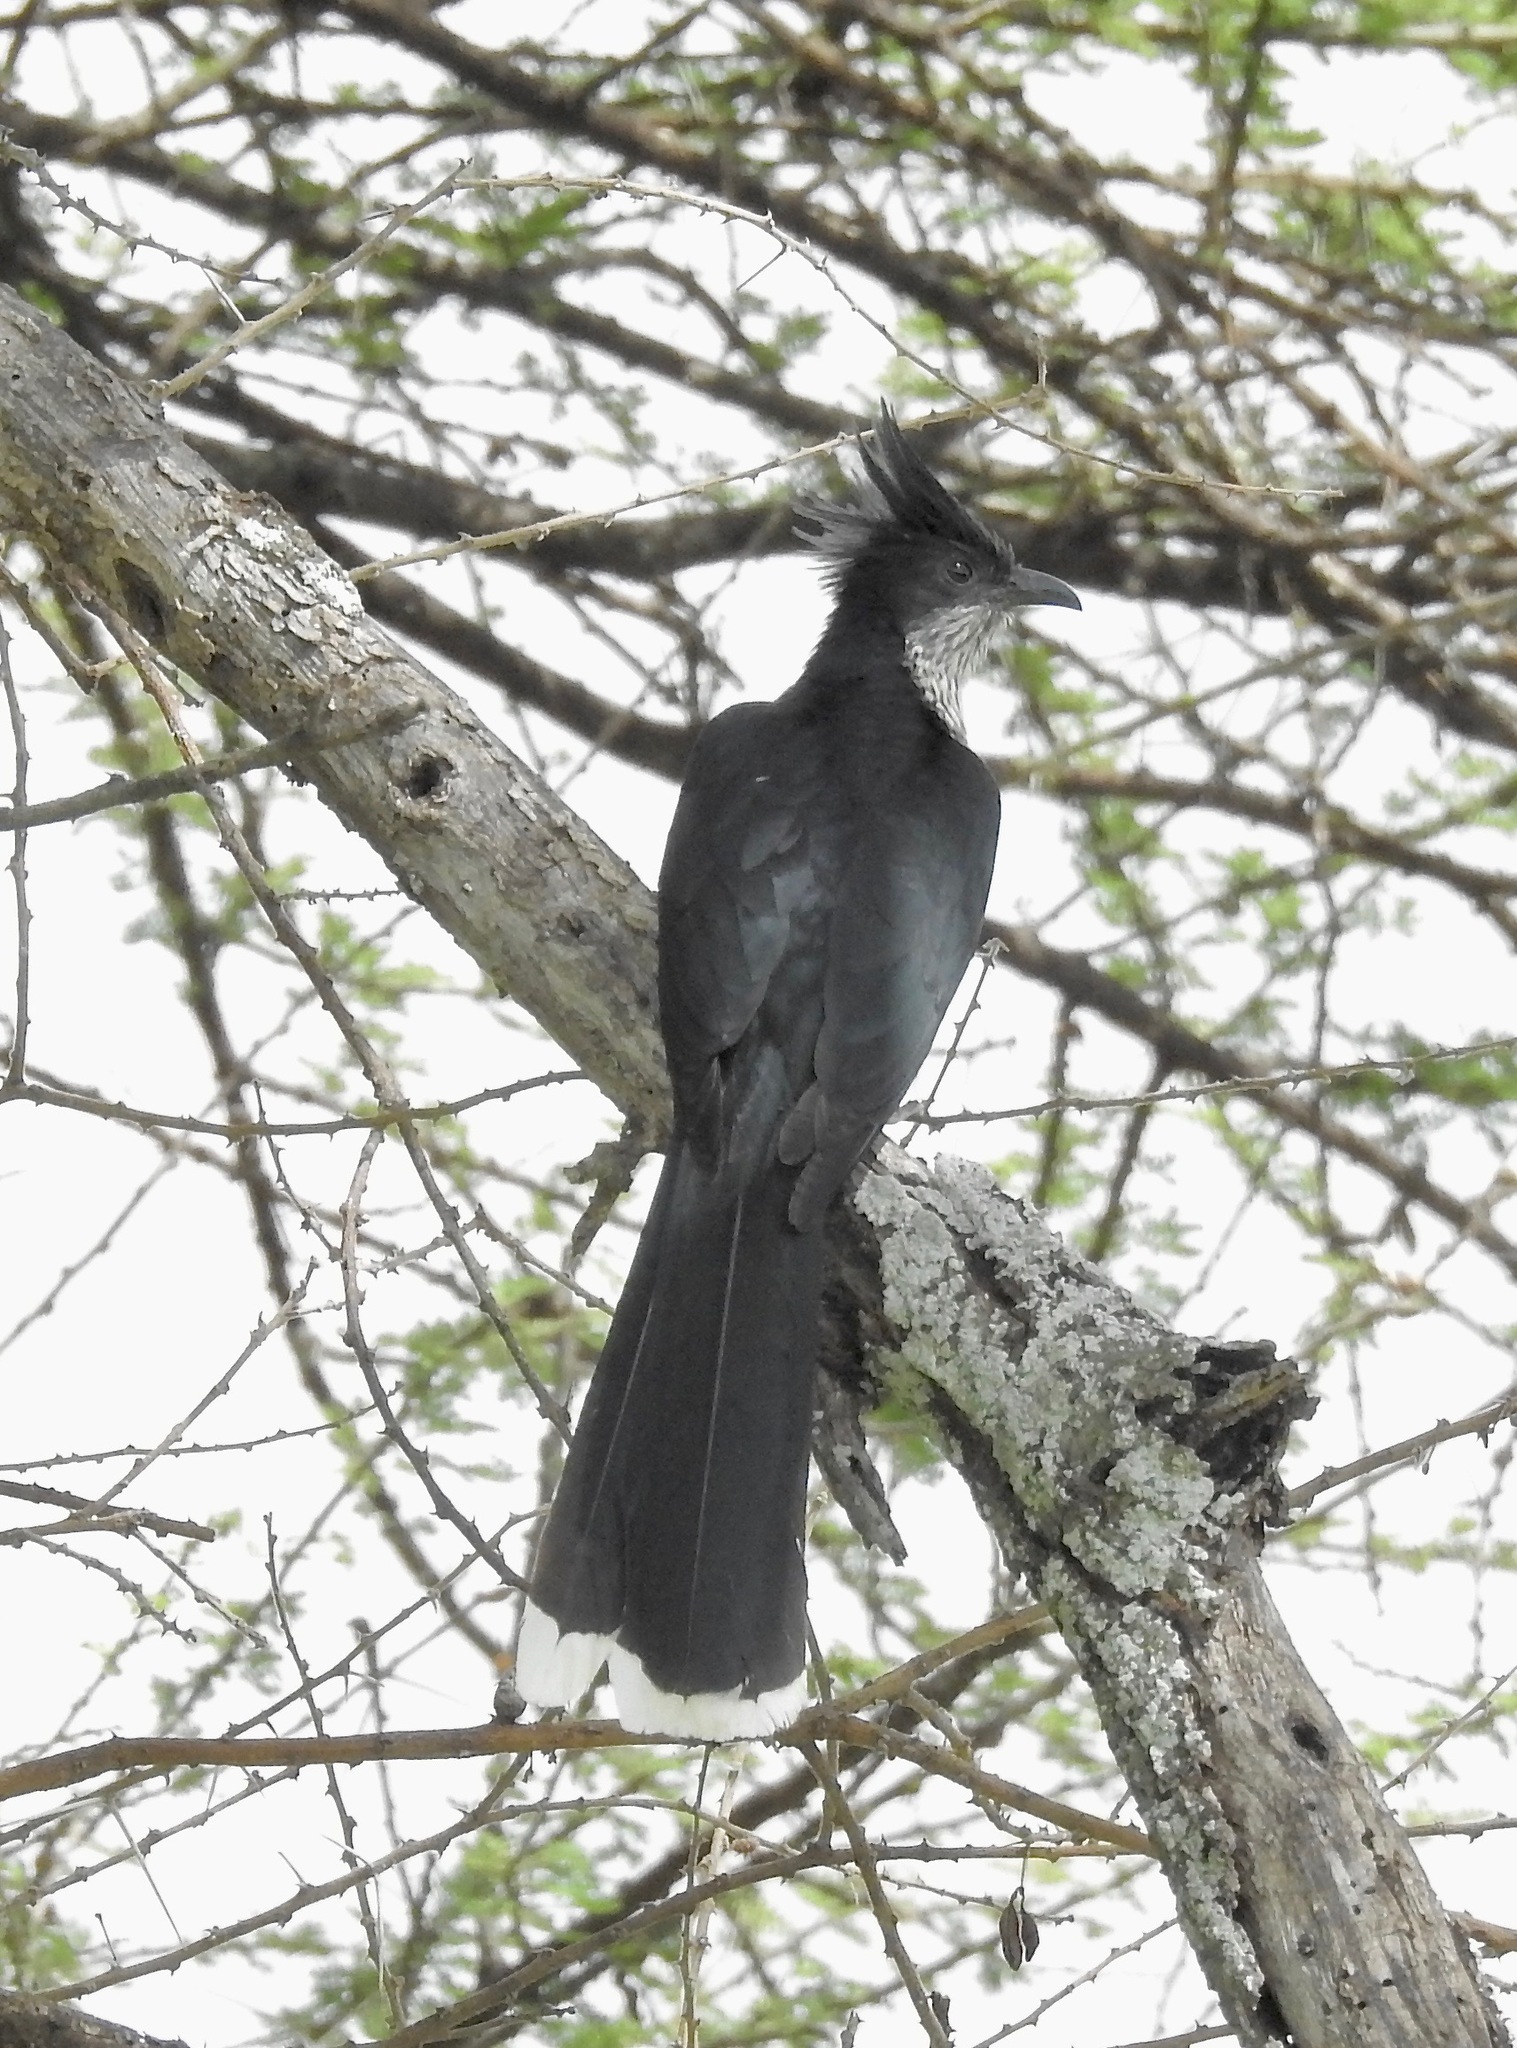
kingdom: Animalia
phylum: Chordata
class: Aves
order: Cuculiformes
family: Cuculidae
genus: Clamator
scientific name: Clamator levaillantii
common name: Levaillant's cuckoo
